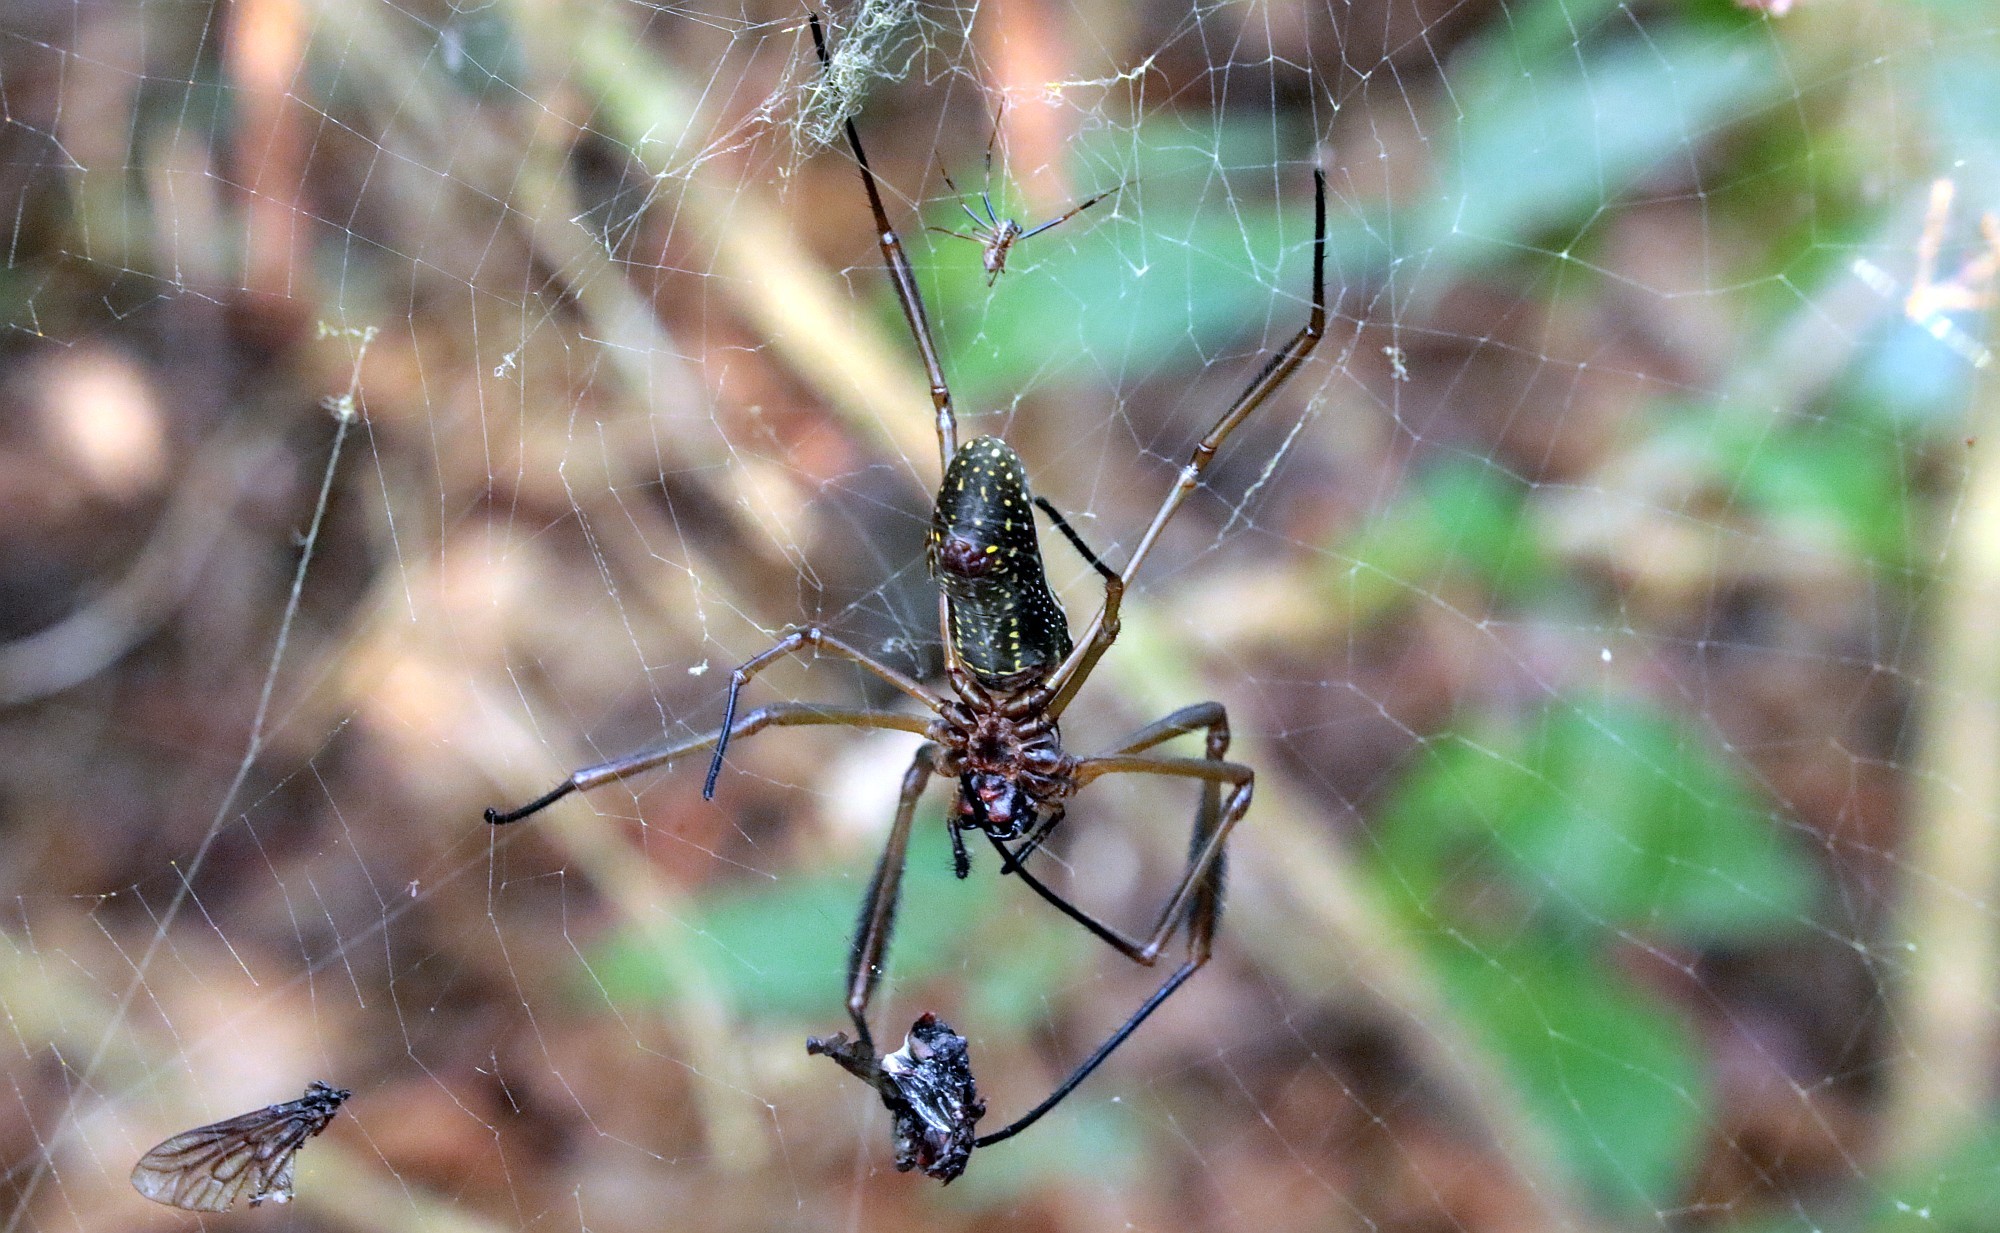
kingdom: Animalia
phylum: Arthropoda
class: Arachnida
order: Araneae
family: Araneidae
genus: Trichonephila
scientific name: Trichonephila clavipes
